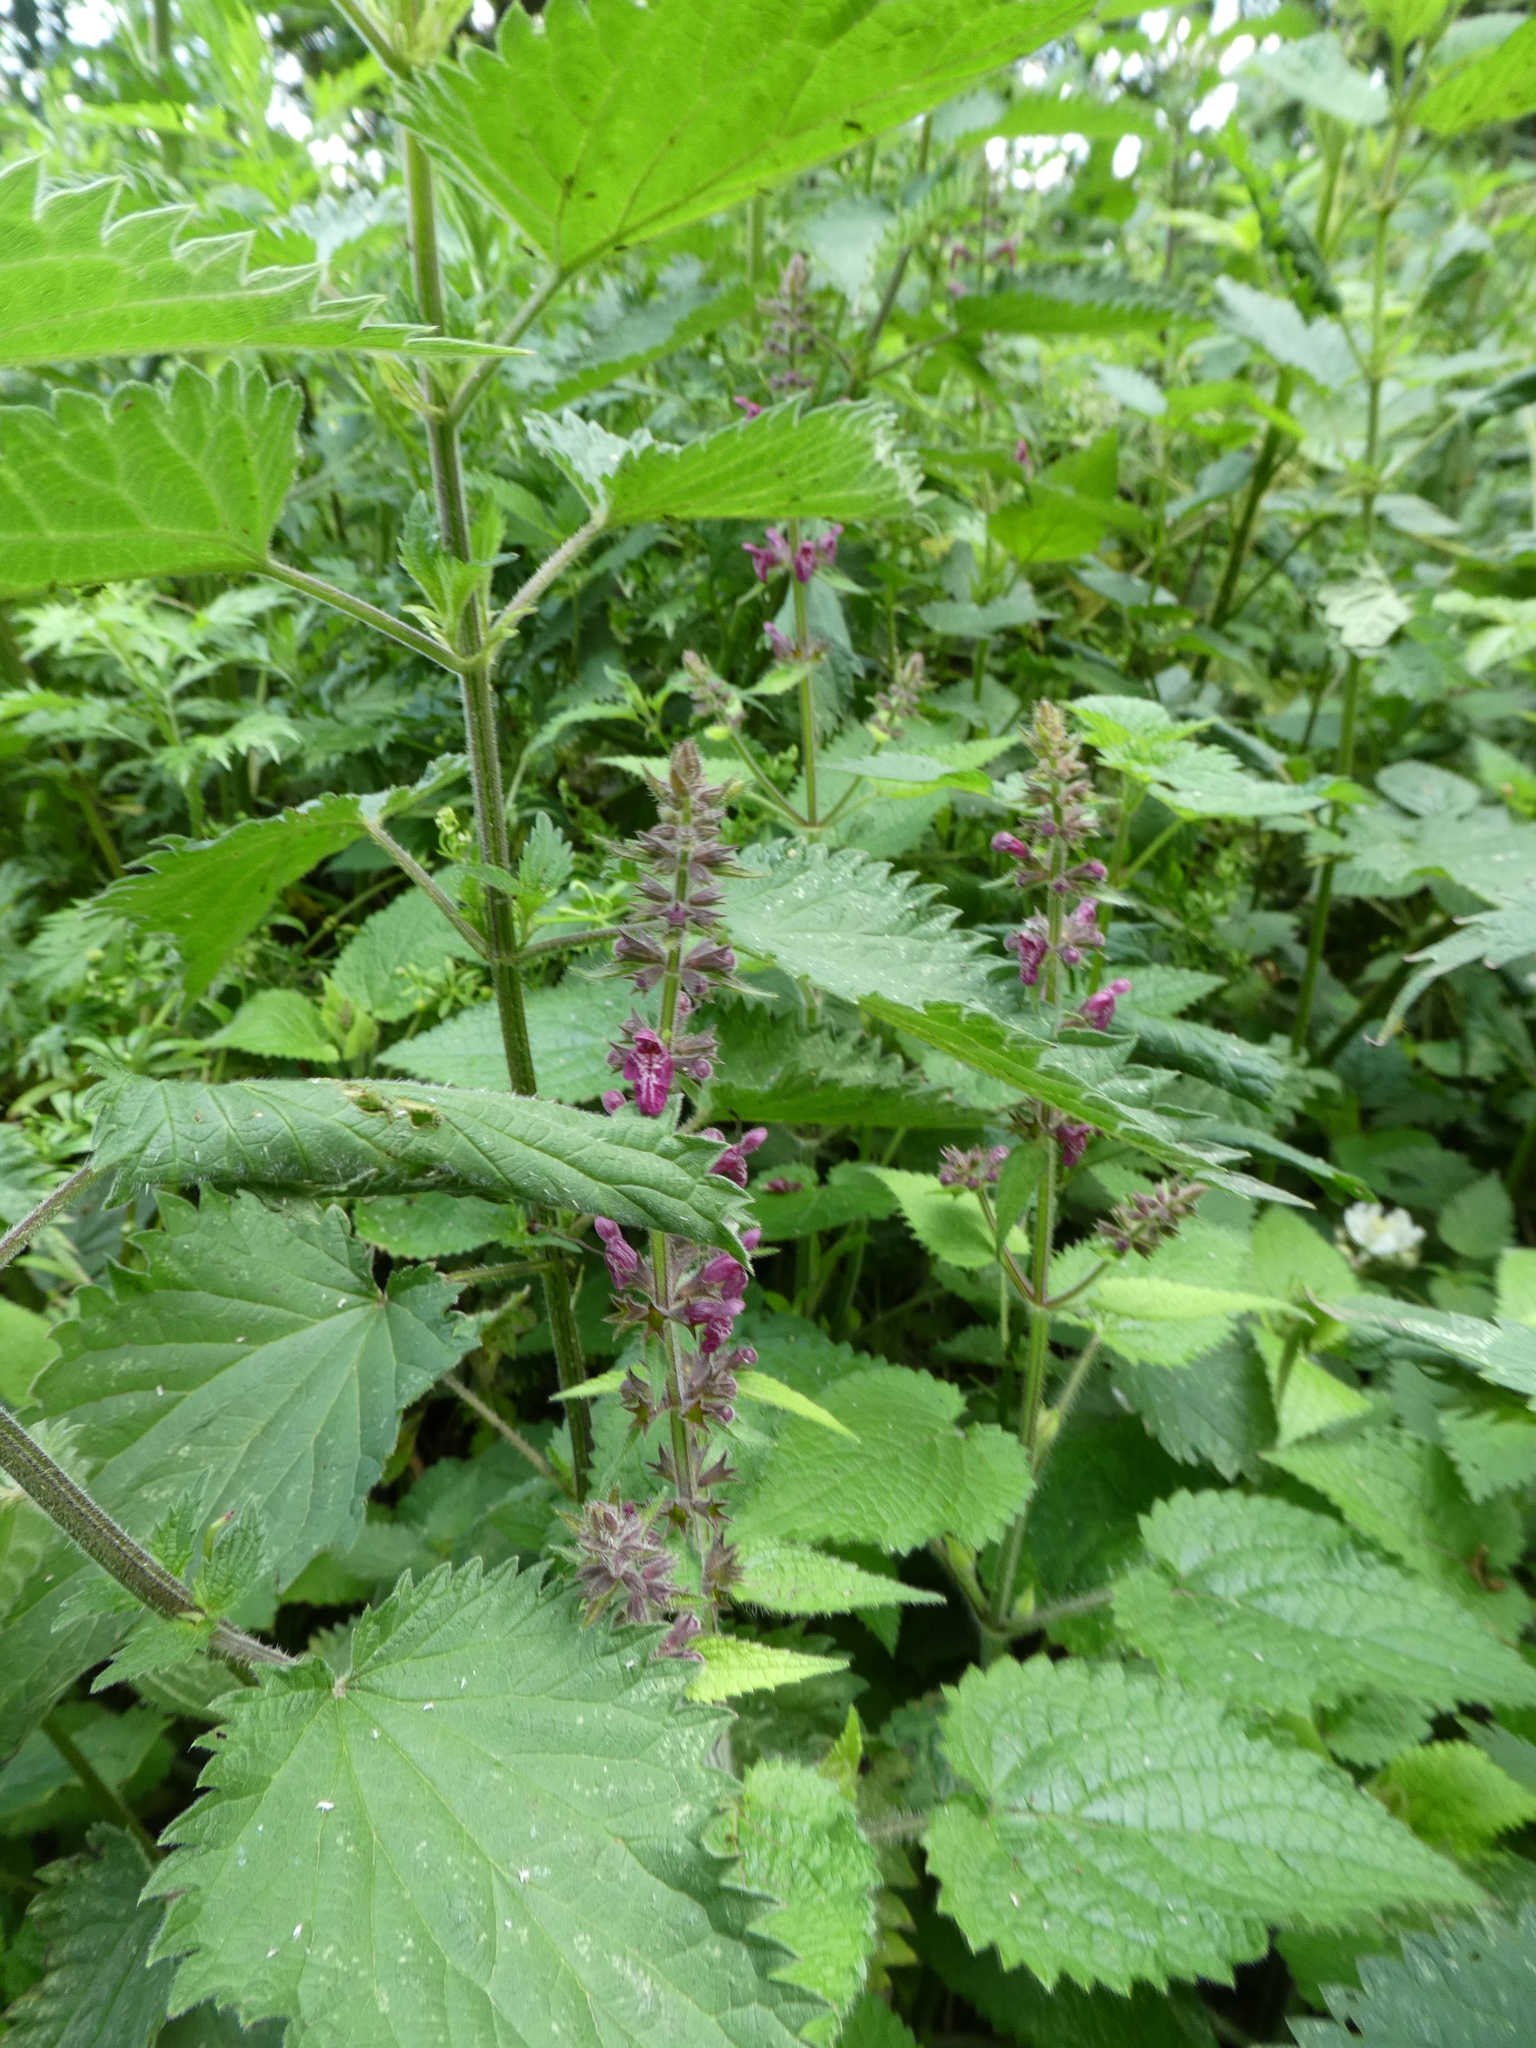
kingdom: Plantae
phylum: Tracheophyta
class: Magnoliopsida
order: Lamiales
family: Lamiaceae
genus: Stachys
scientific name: Stachys sylvatica
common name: Hedge woundwort
